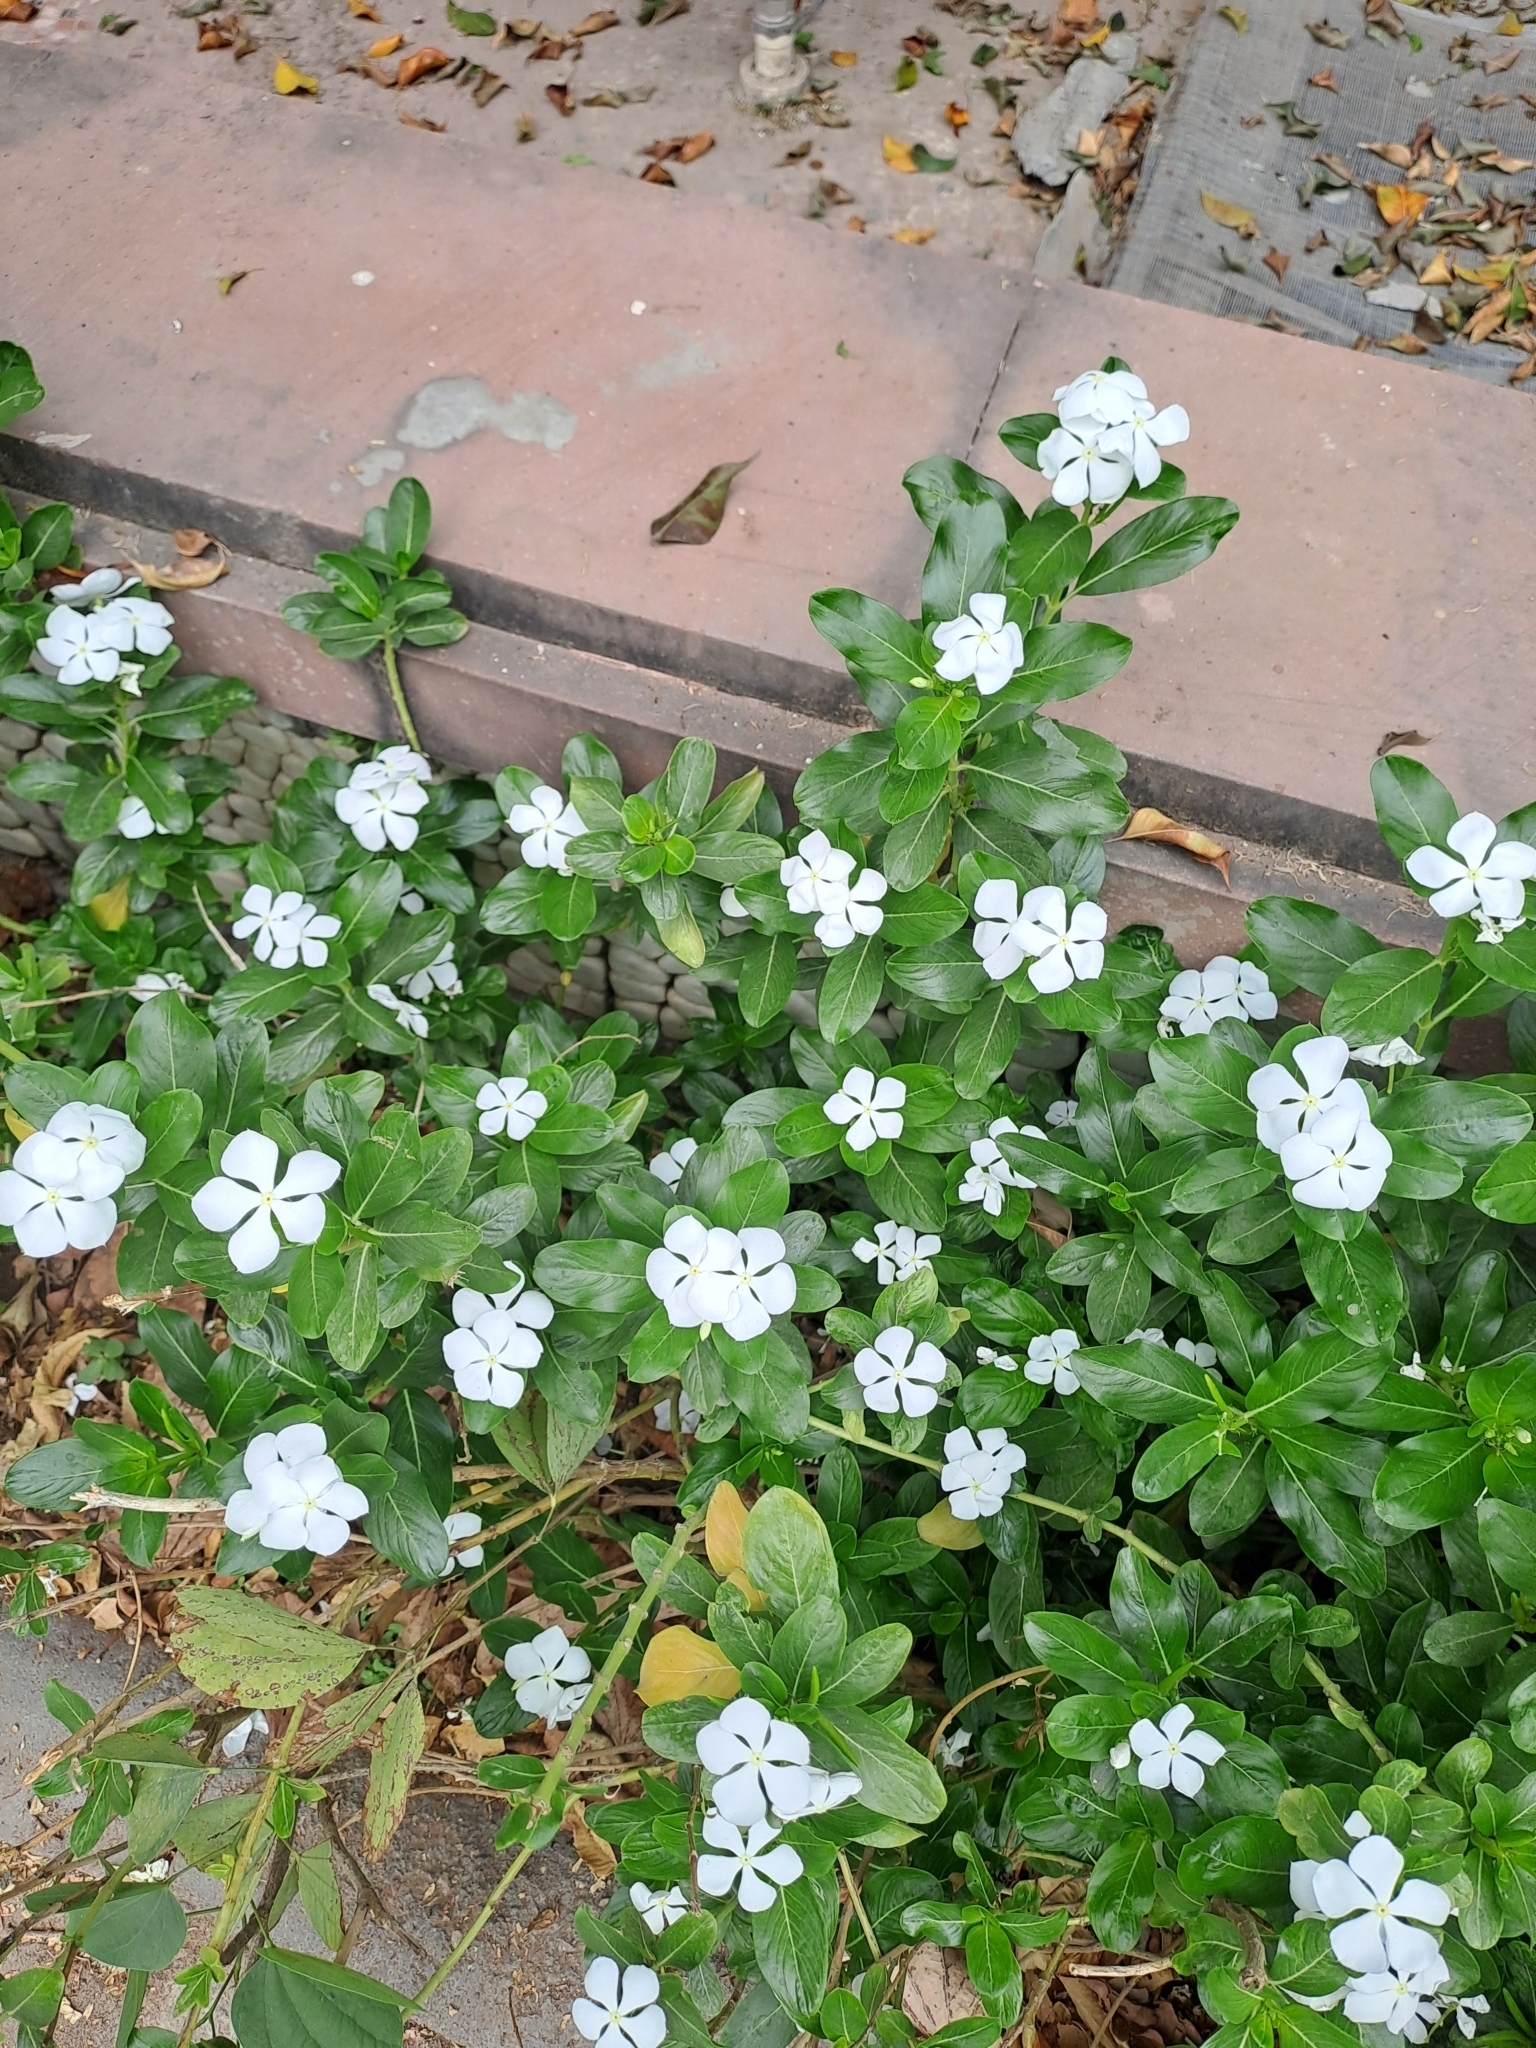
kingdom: Plantae
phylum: Tracheophyta
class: Magnoliopsida
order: Gentianales
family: Apocynaceae
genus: Catharanthus
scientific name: Catharanthus roseus
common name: Madagascar periwinkle
